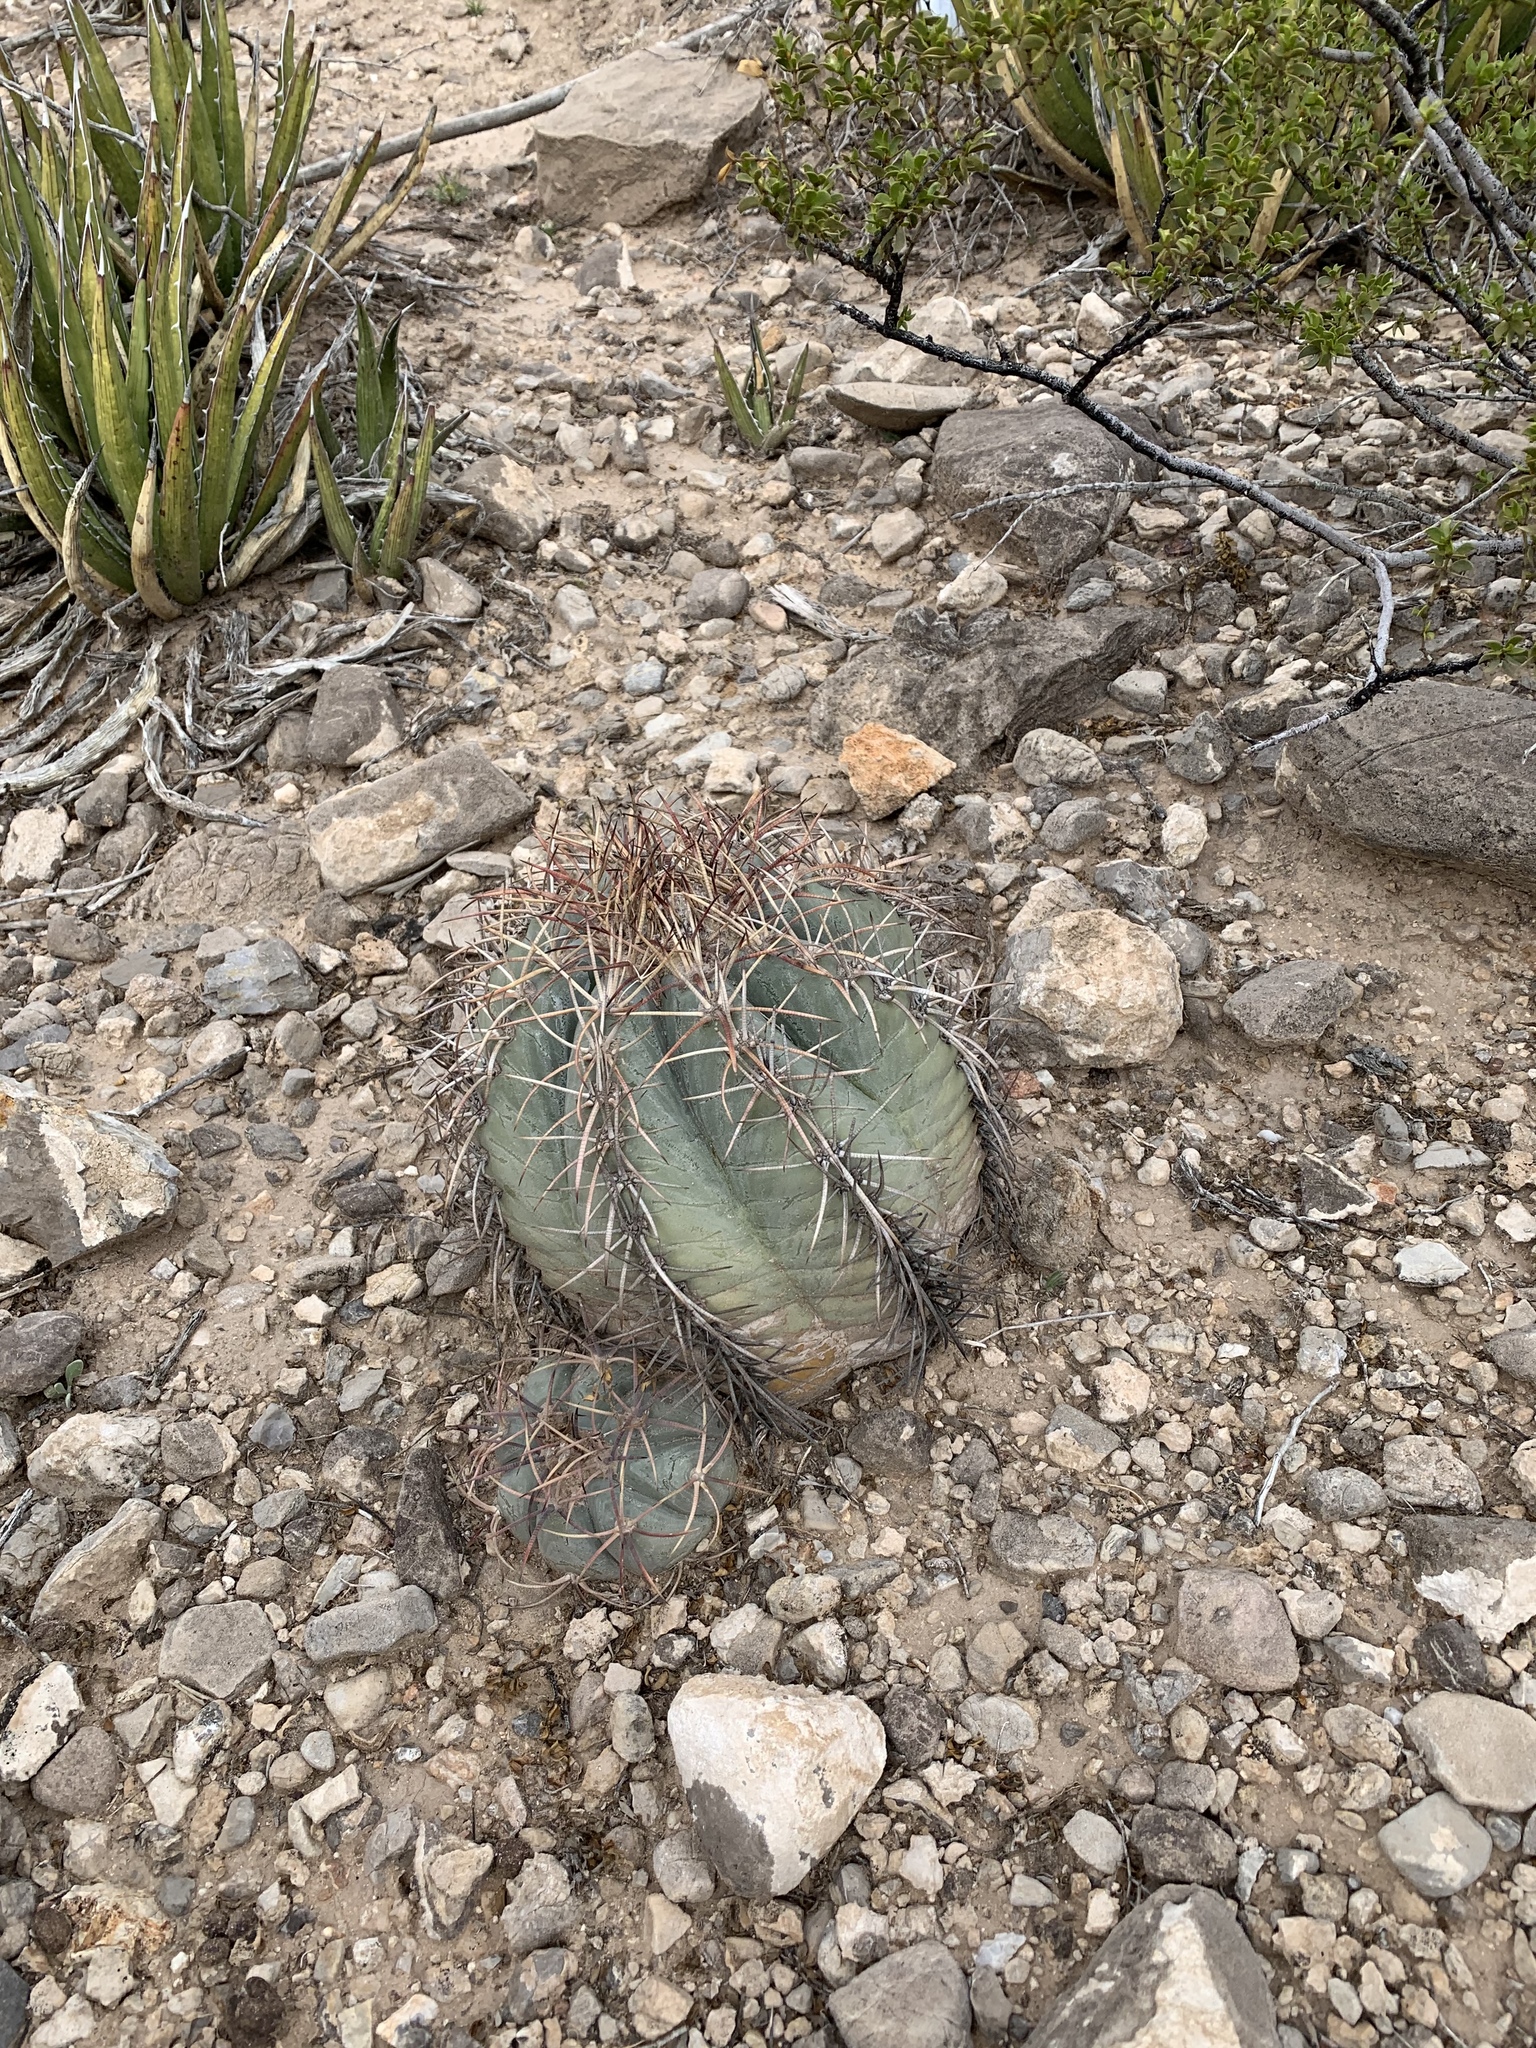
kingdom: Plantae
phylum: Tracheophyta
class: Magnoliopsida
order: Caryophyllales
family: Cactaceae
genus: Echinocactus
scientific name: Echinocactus horizonthalonius
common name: Devilshead
